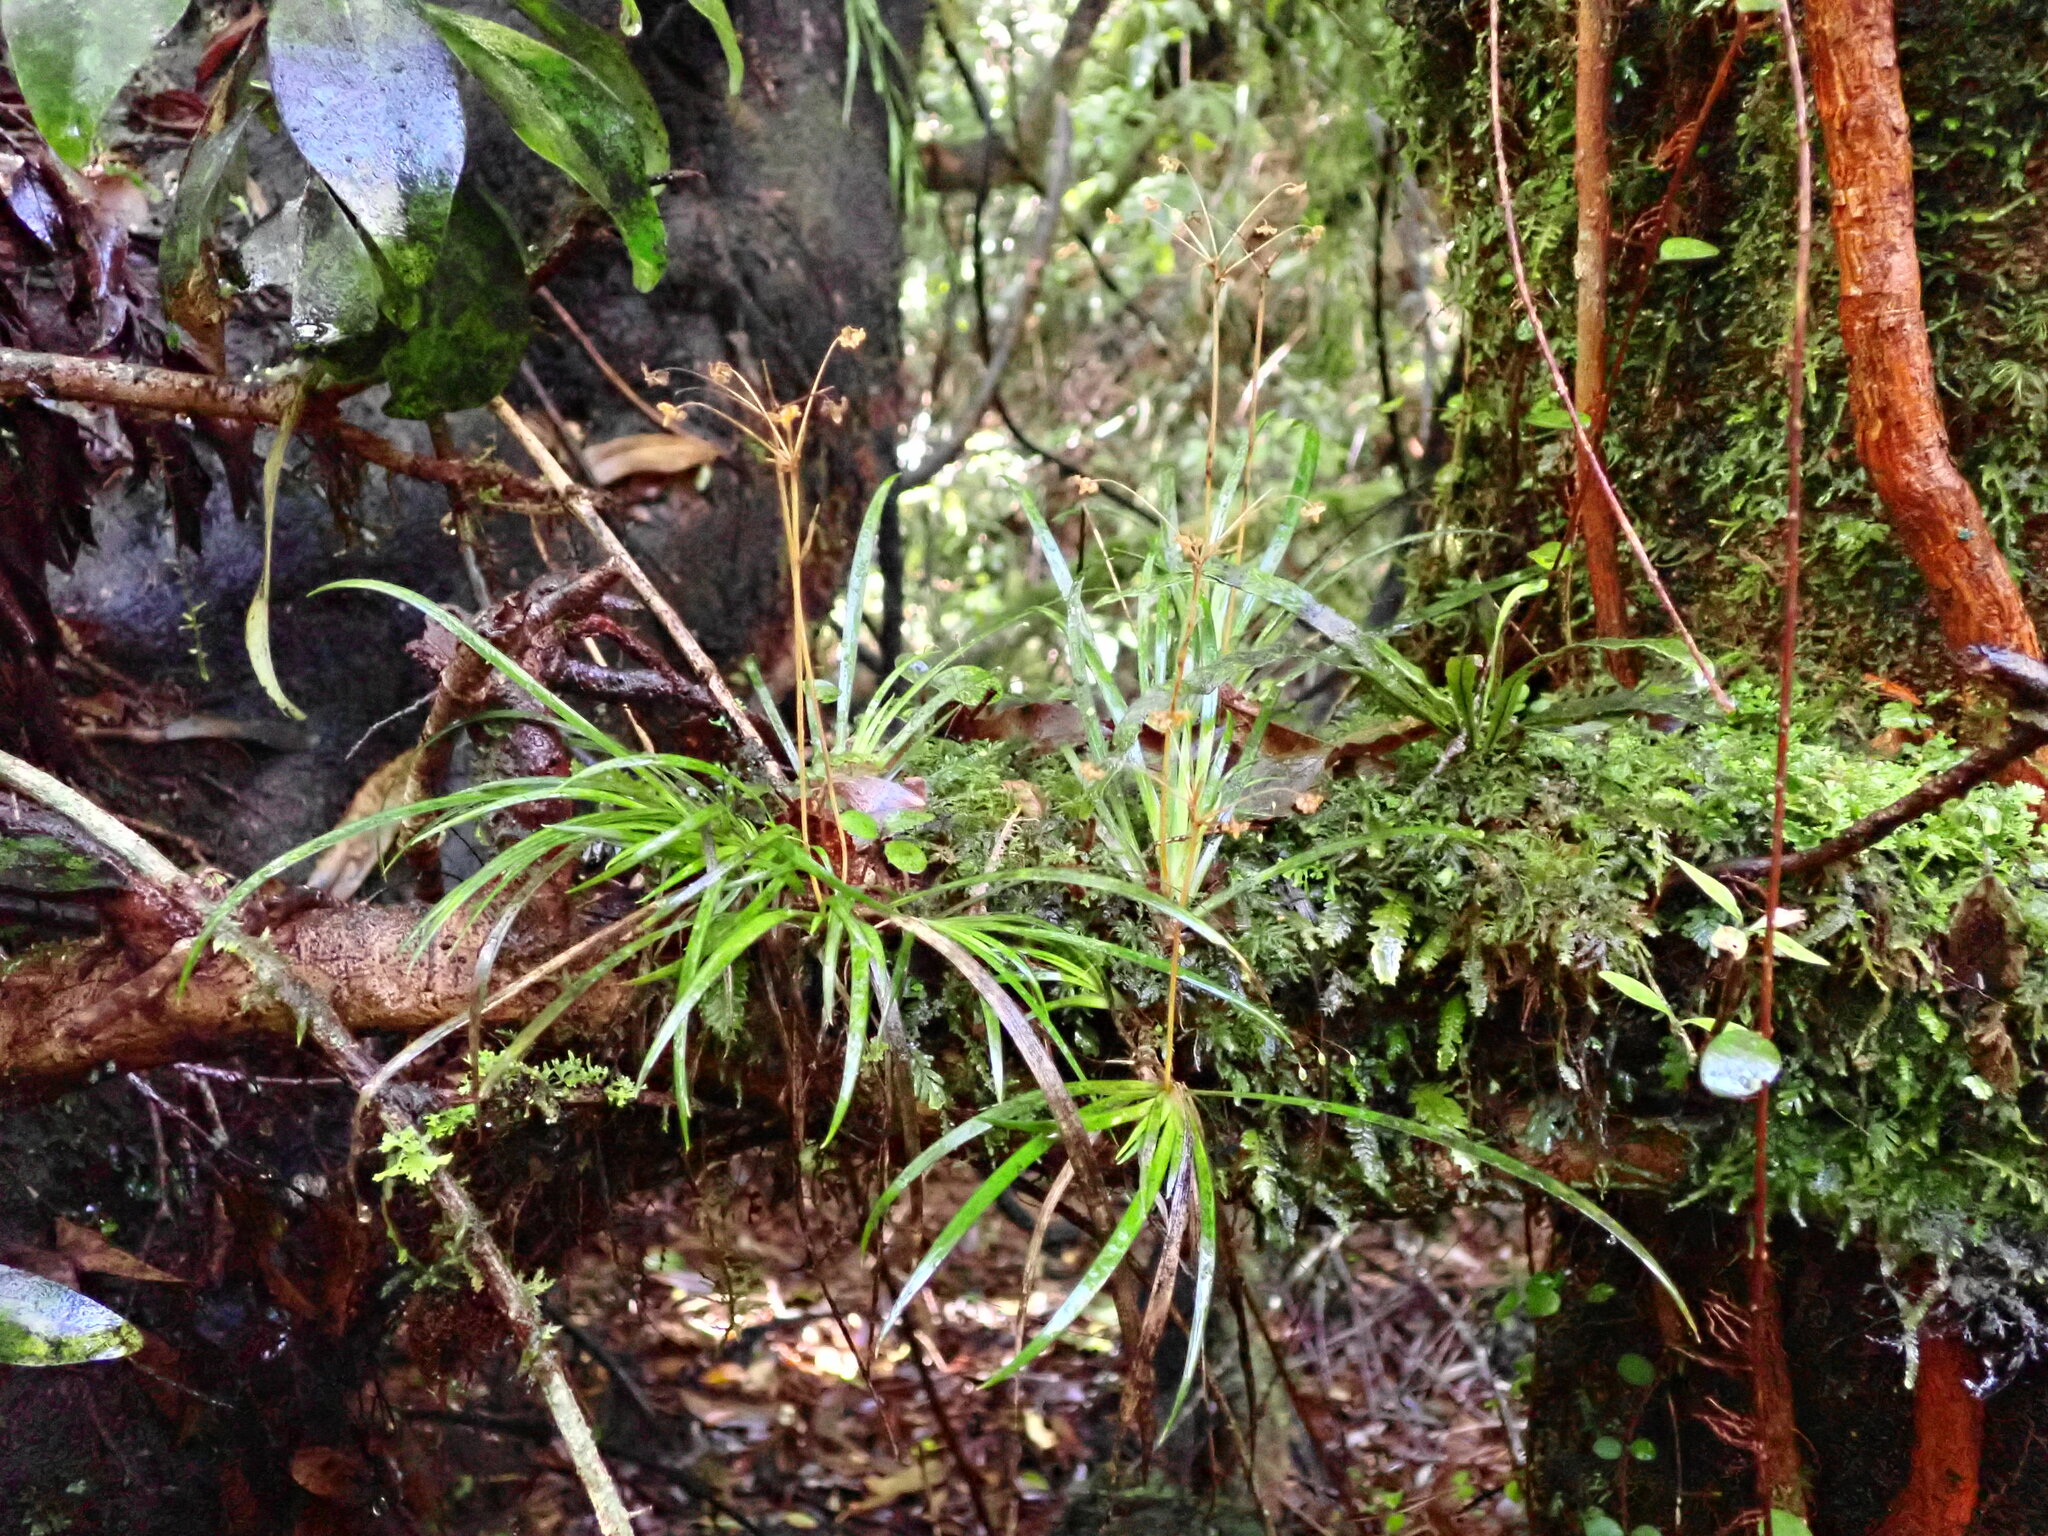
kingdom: Plantae
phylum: Tracheophyta
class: Liliopsida
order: Asparagales
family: Iridaceae
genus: Libertia
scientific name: Libertia micrantha
